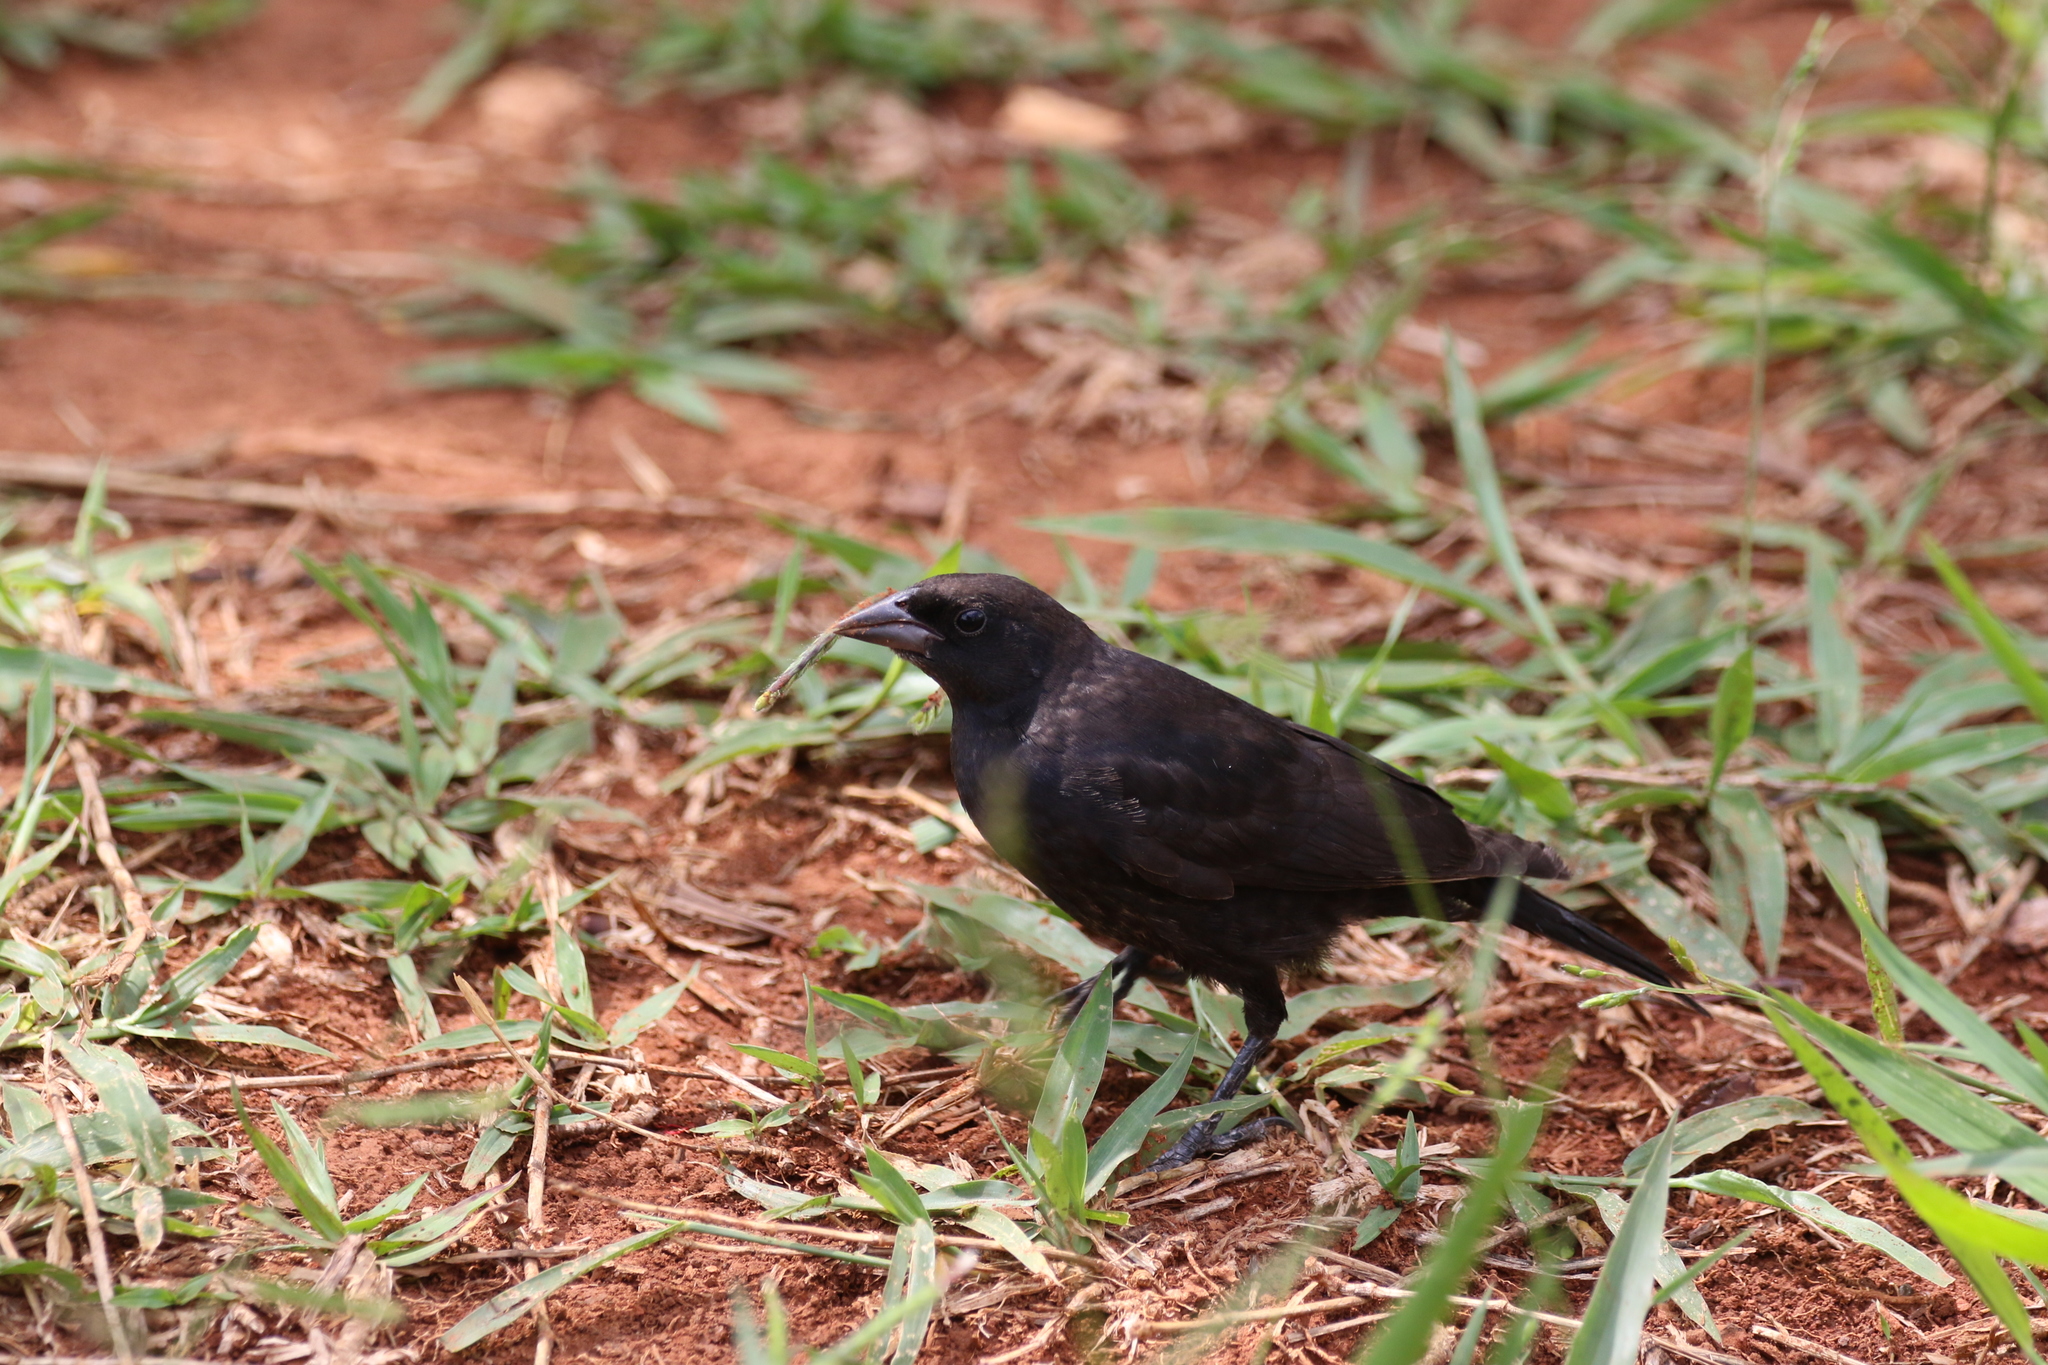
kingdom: Animalia
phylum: Chordata
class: Aves
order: Passeriformes
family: Icteridae
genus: Molothrus
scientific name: Molothrus bonariensis
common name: Shiny cowbird
